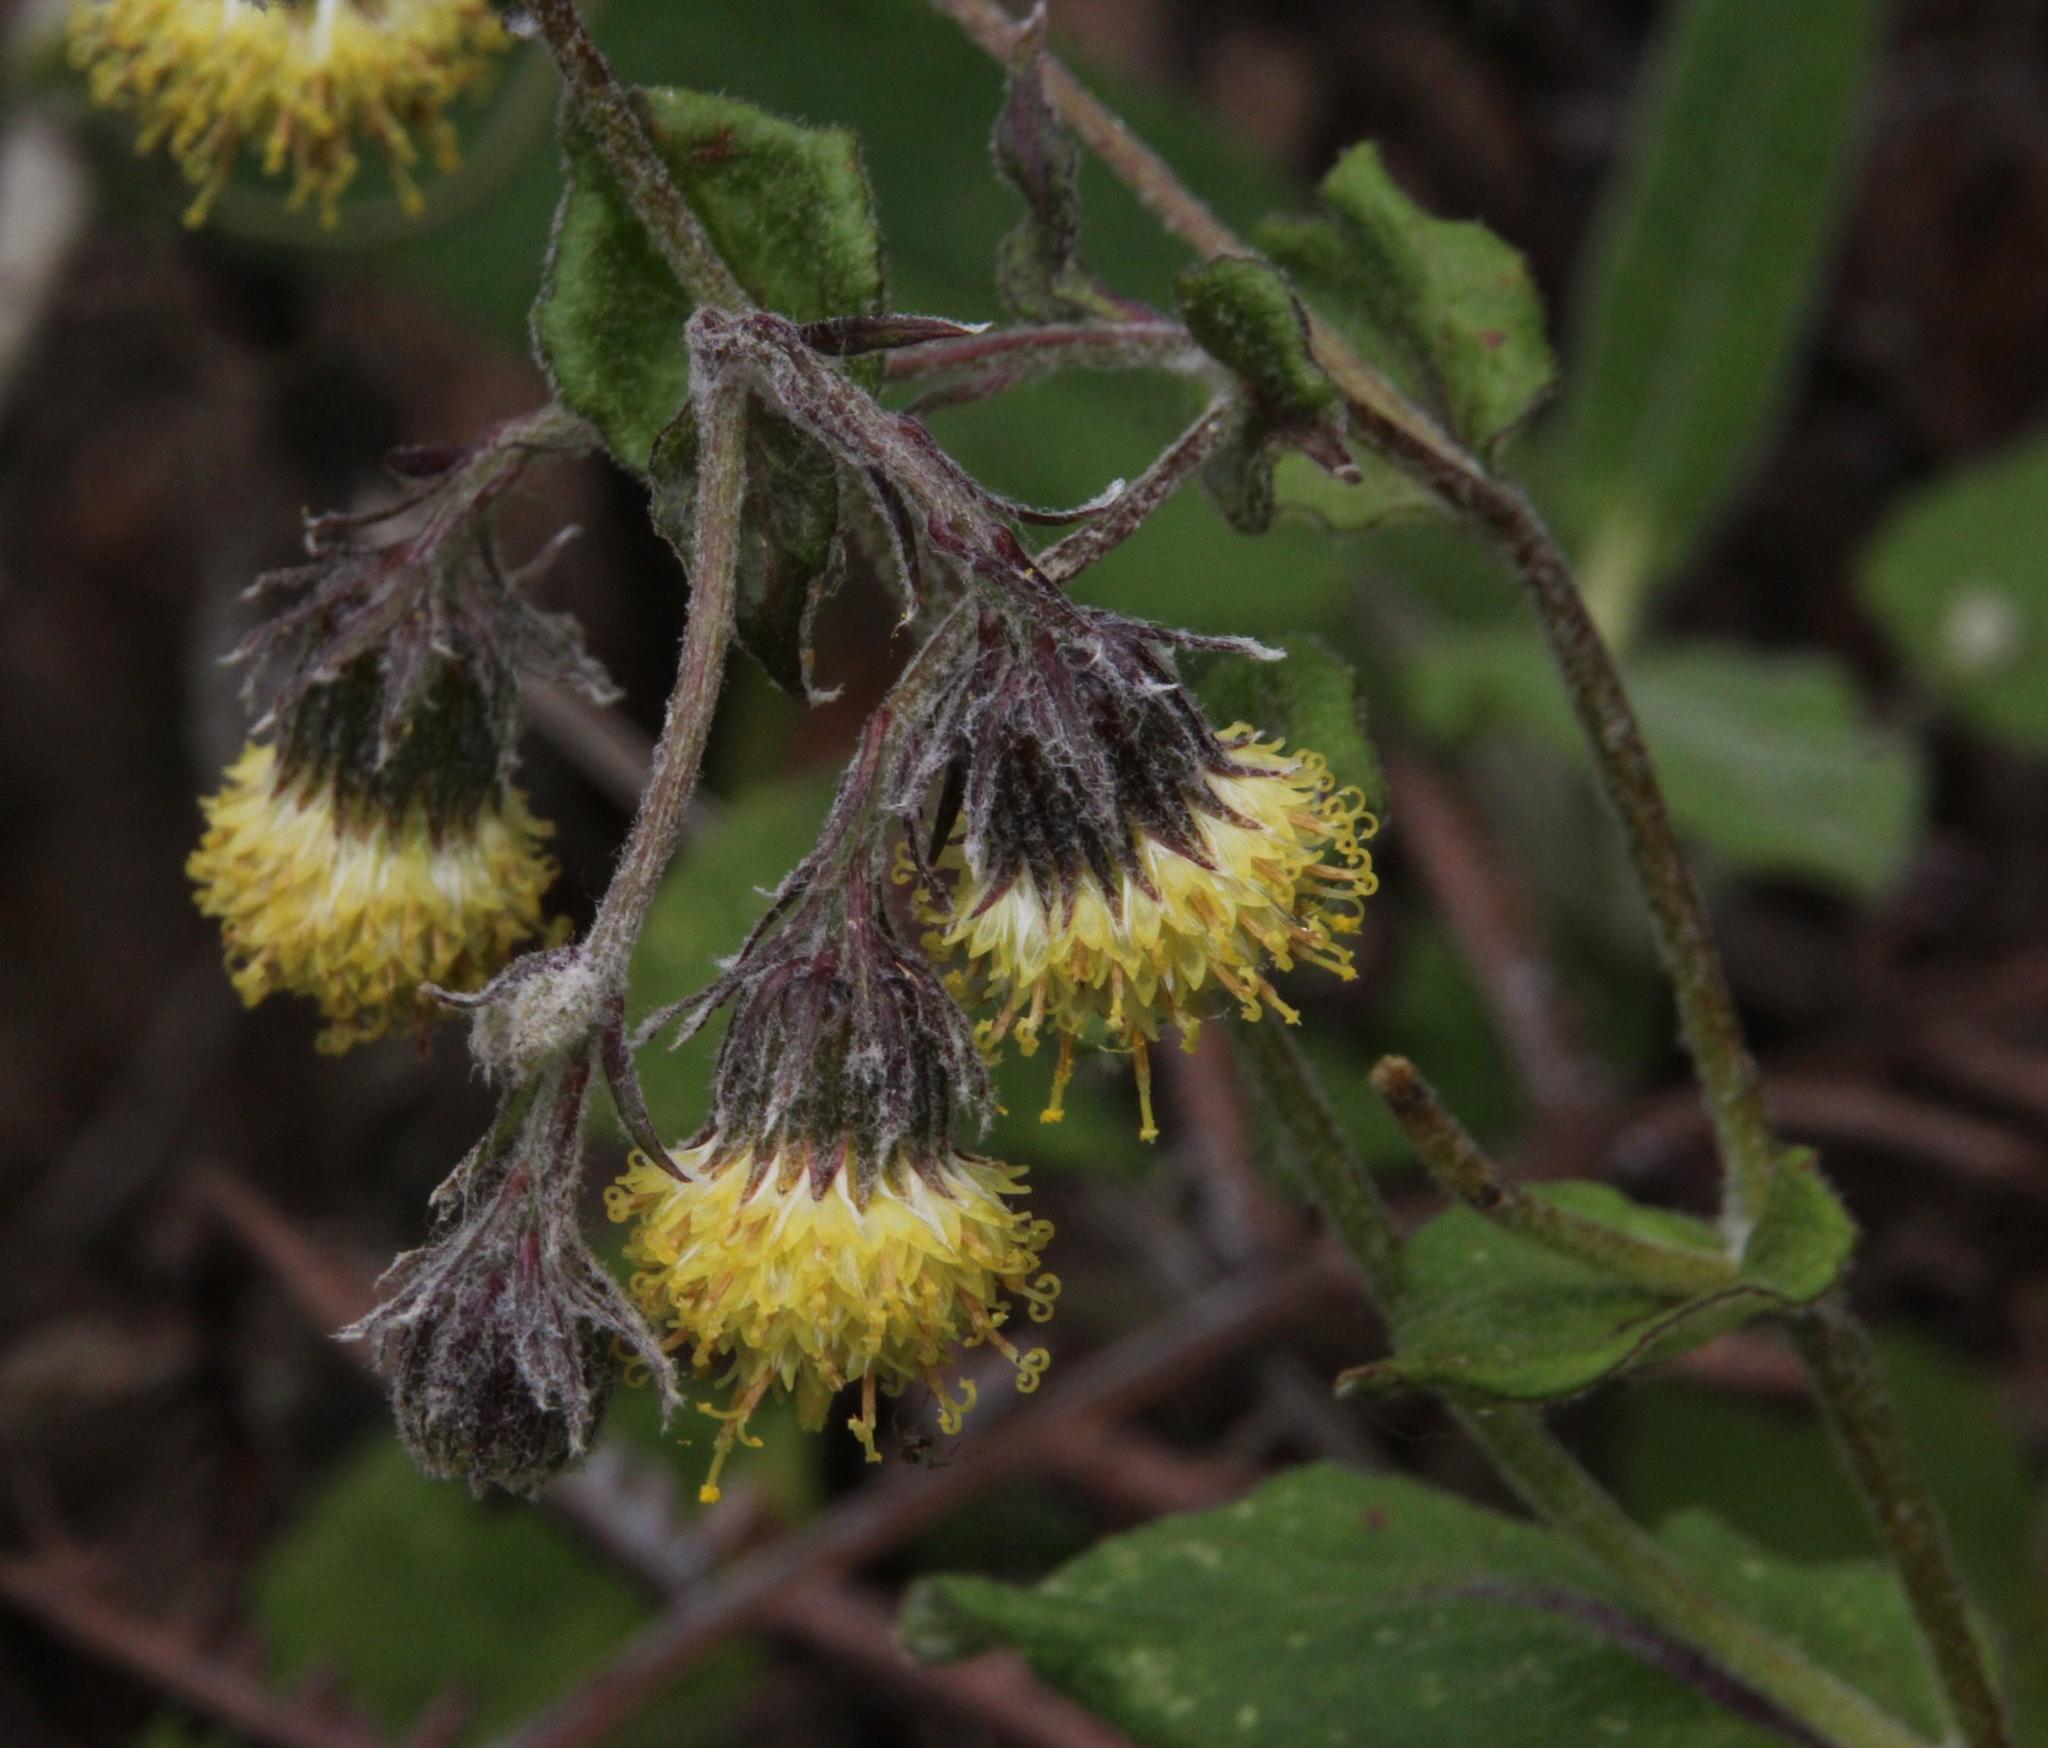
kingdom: Plantae
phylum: Tracheophyta
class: Magnoliopsida
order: Asterales
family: Asteraceae
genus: Aetheolaena
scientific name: Aetheolaena betonicifolia
